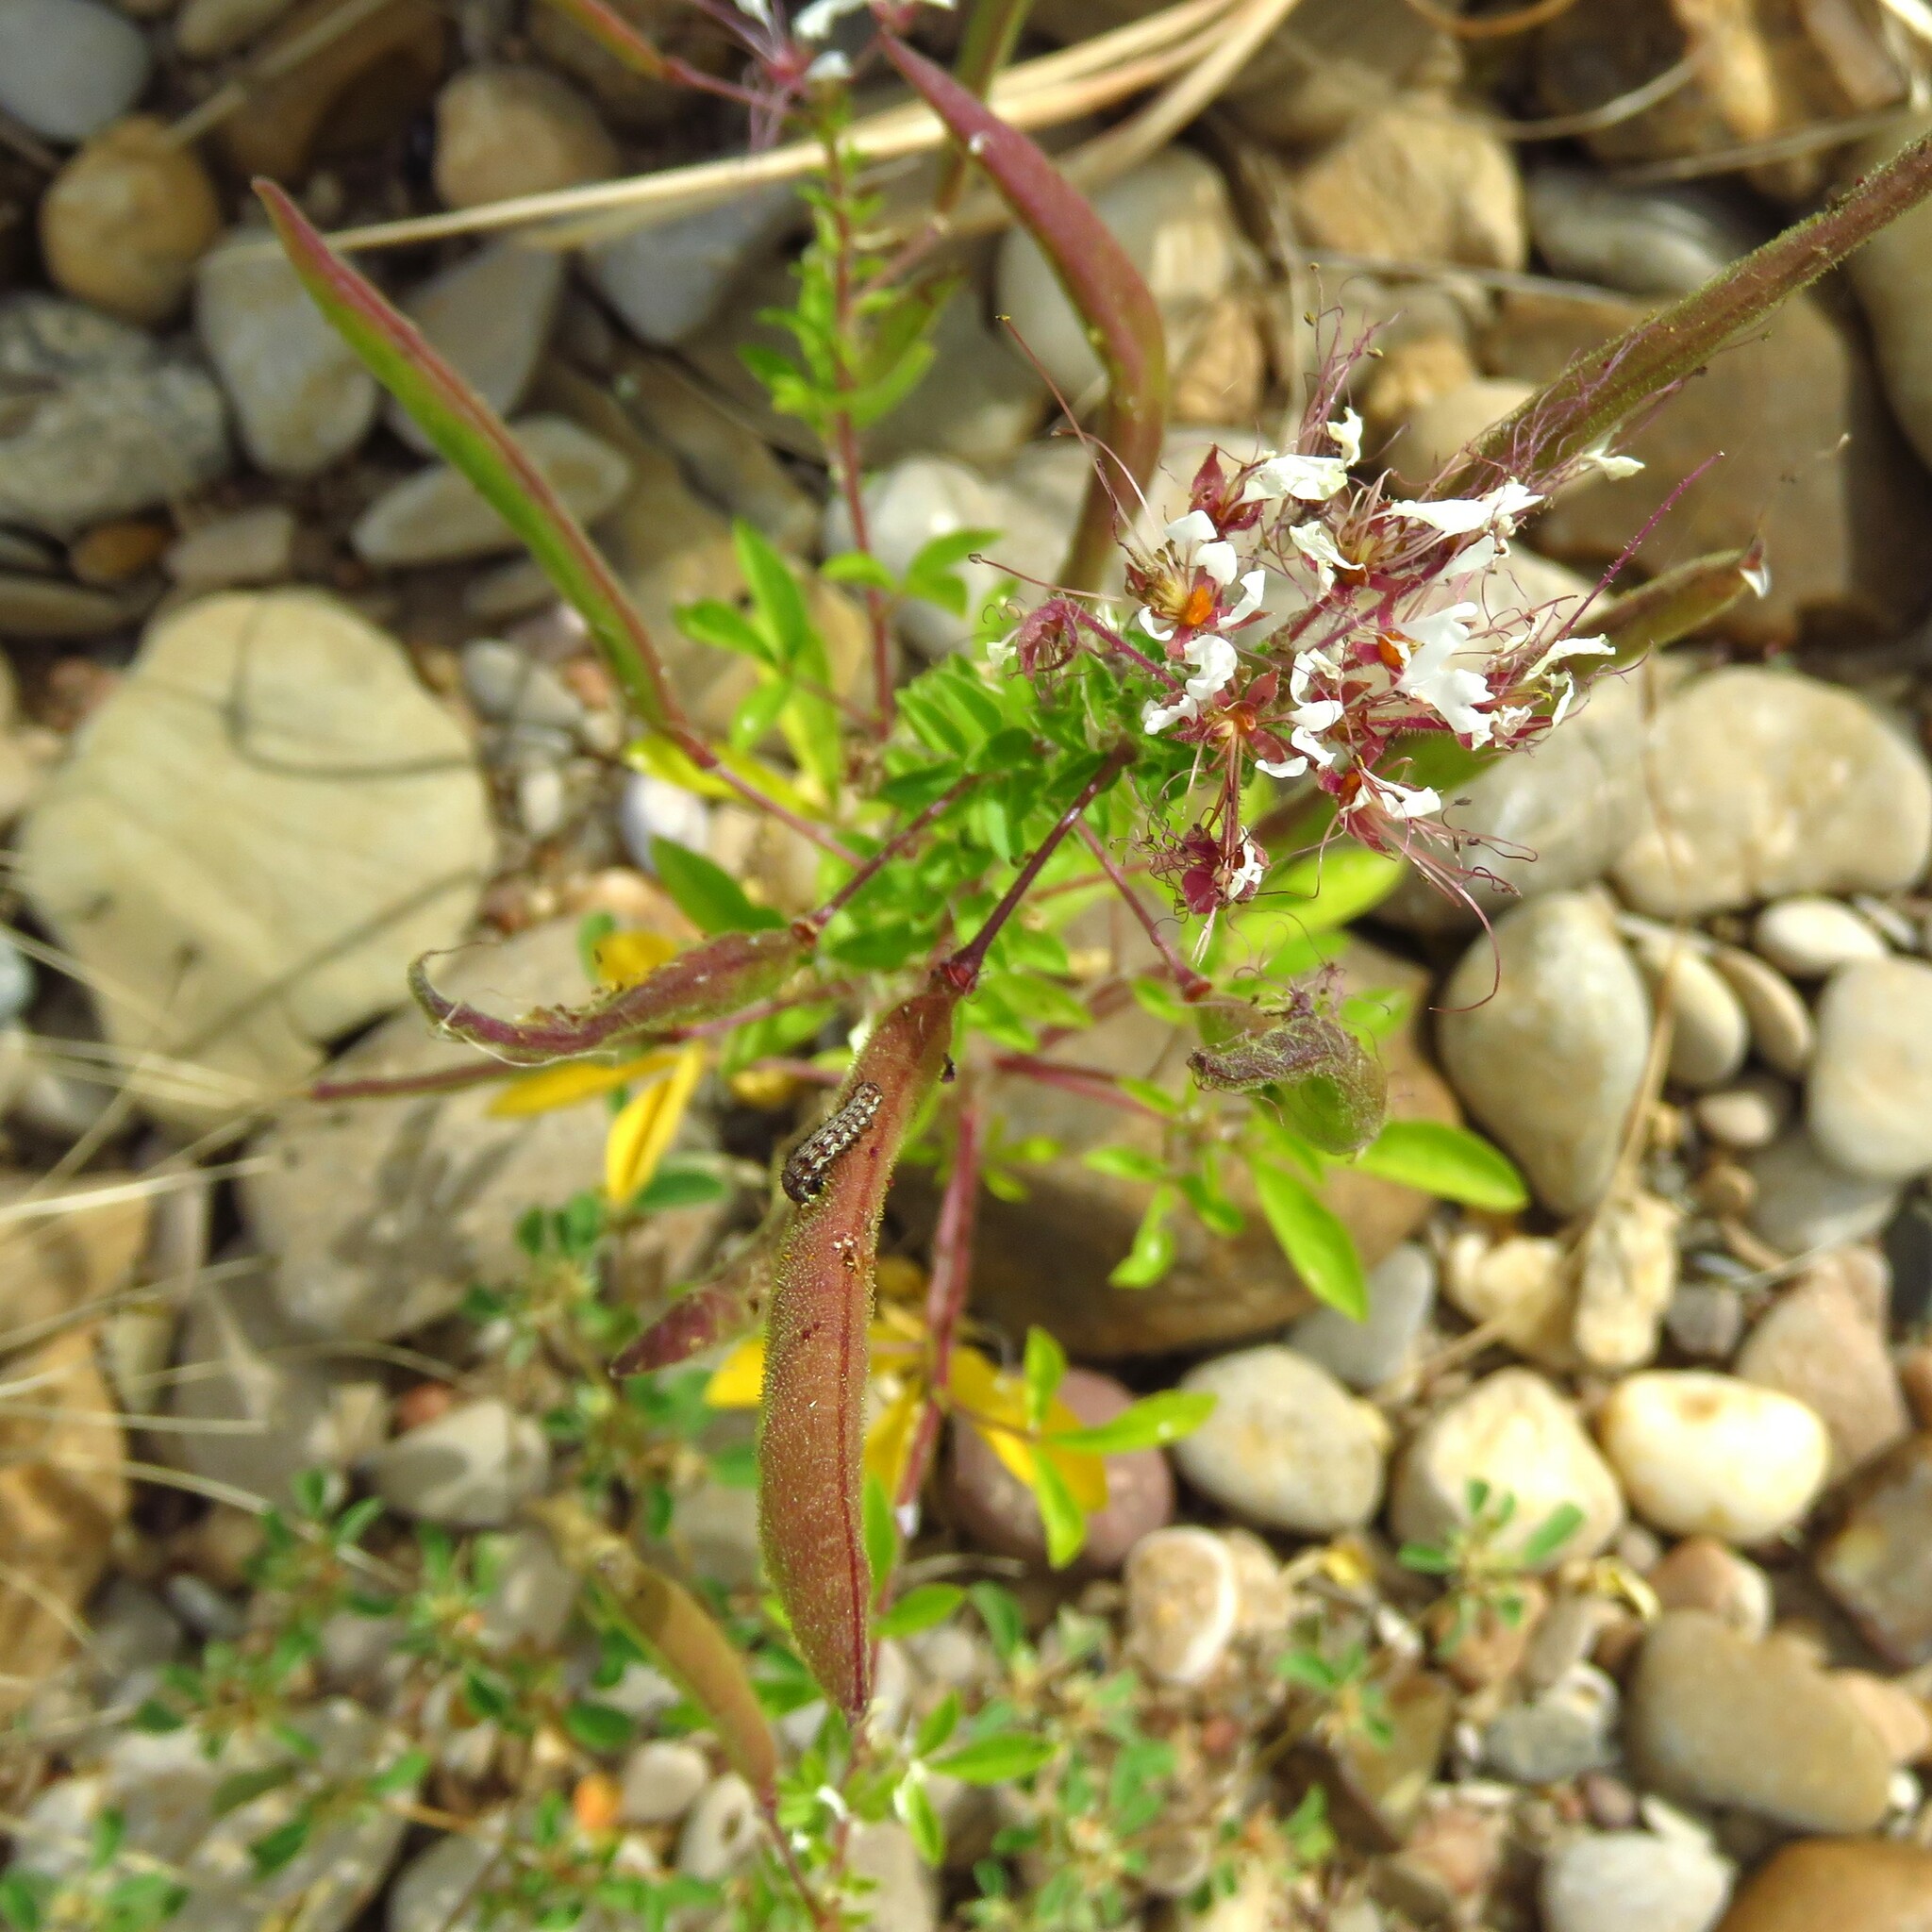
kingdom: Plantae
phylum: Tracheophyta
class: Magnoliopsida
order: Brassicales
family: Cleomaceae
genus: Polanisia
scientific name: Polanisia dodecandra
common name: Clammyweed
